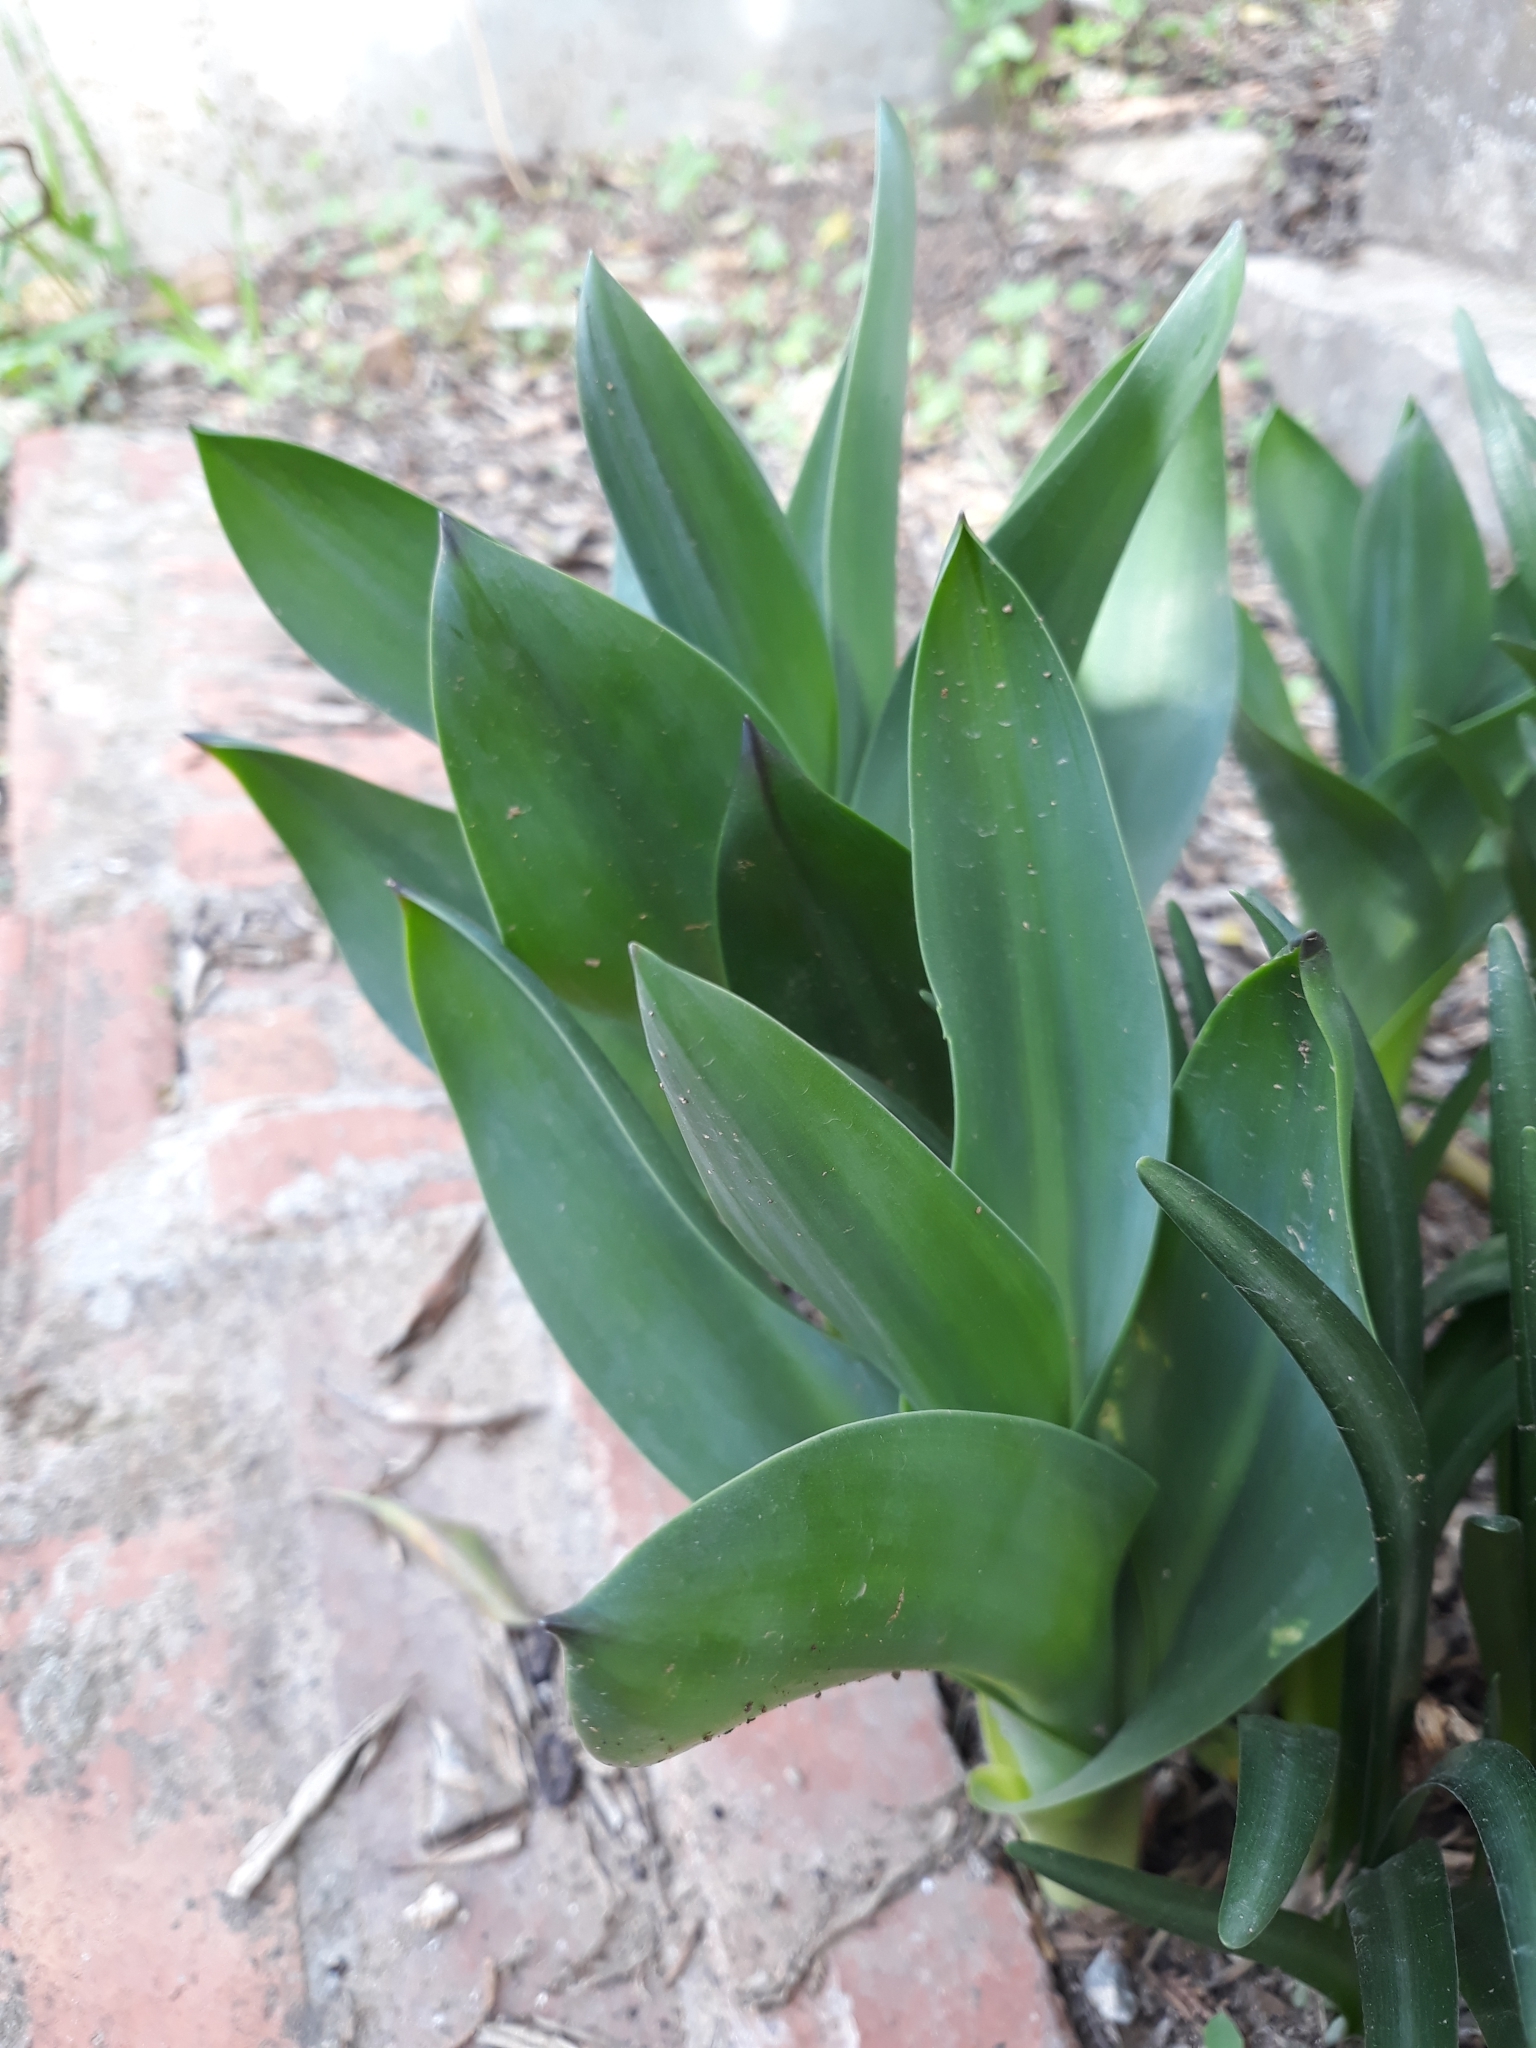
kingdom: Plantae
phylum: Tracheophyta
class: Liliopsida
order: Asparagales
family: Asparagaceae
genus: Drimia
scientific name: Drimia numidica
